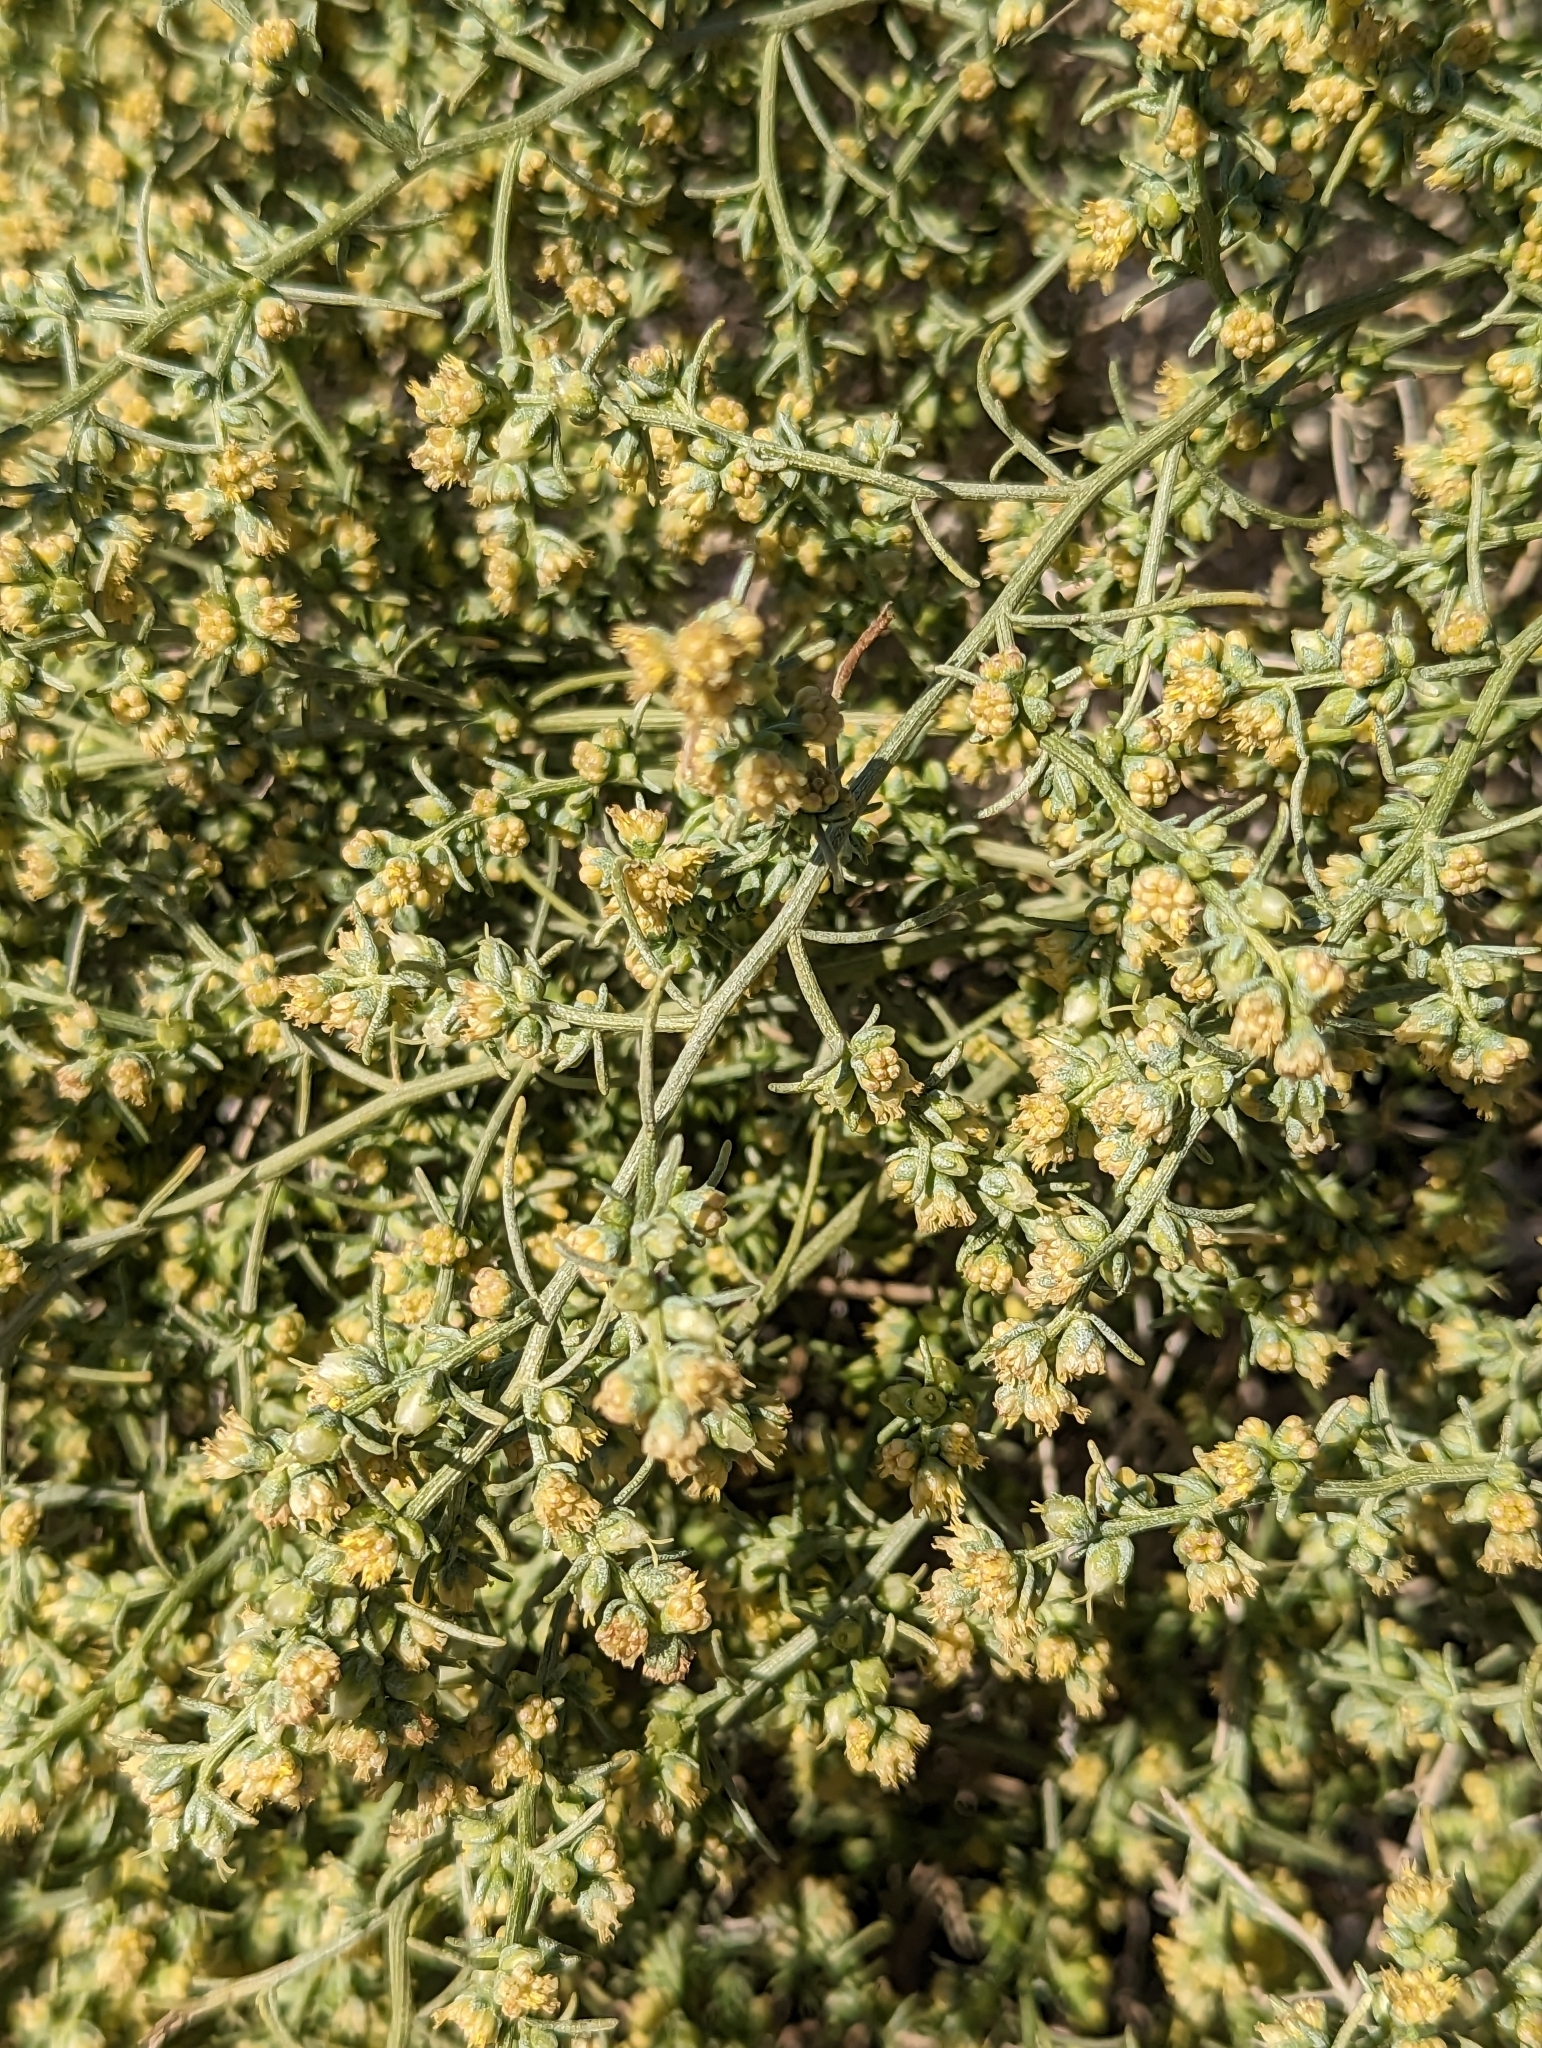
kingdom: Plantae
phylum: Tracheophyta
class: Magnoliopsida
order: Asterales
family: Asteraceae
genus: Ambrosia
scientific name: Ambrosia salsola
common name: Burrobrush
